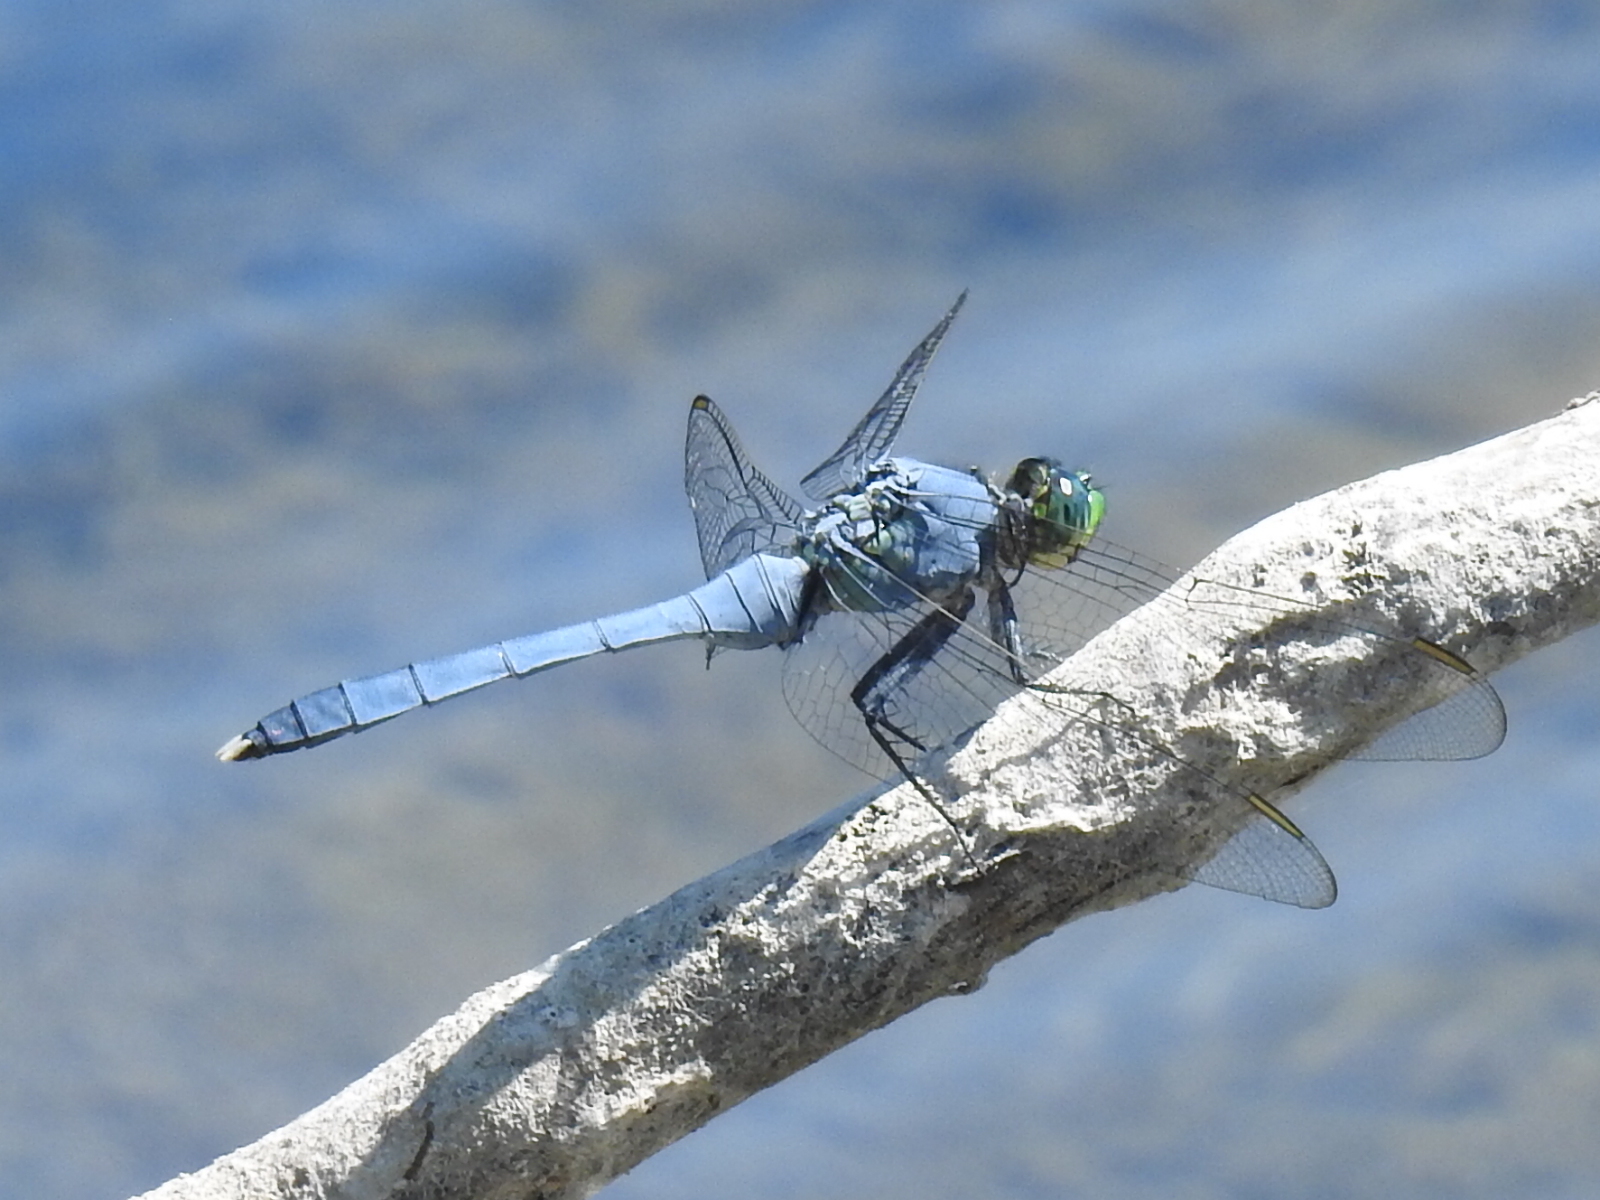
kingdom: Animalia
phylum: Arthropoda
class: Insecta
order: Odonata
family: Libellulidae
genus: Erythemis
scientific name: Erythemis simplicicollis
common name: Eastern pondhawk
